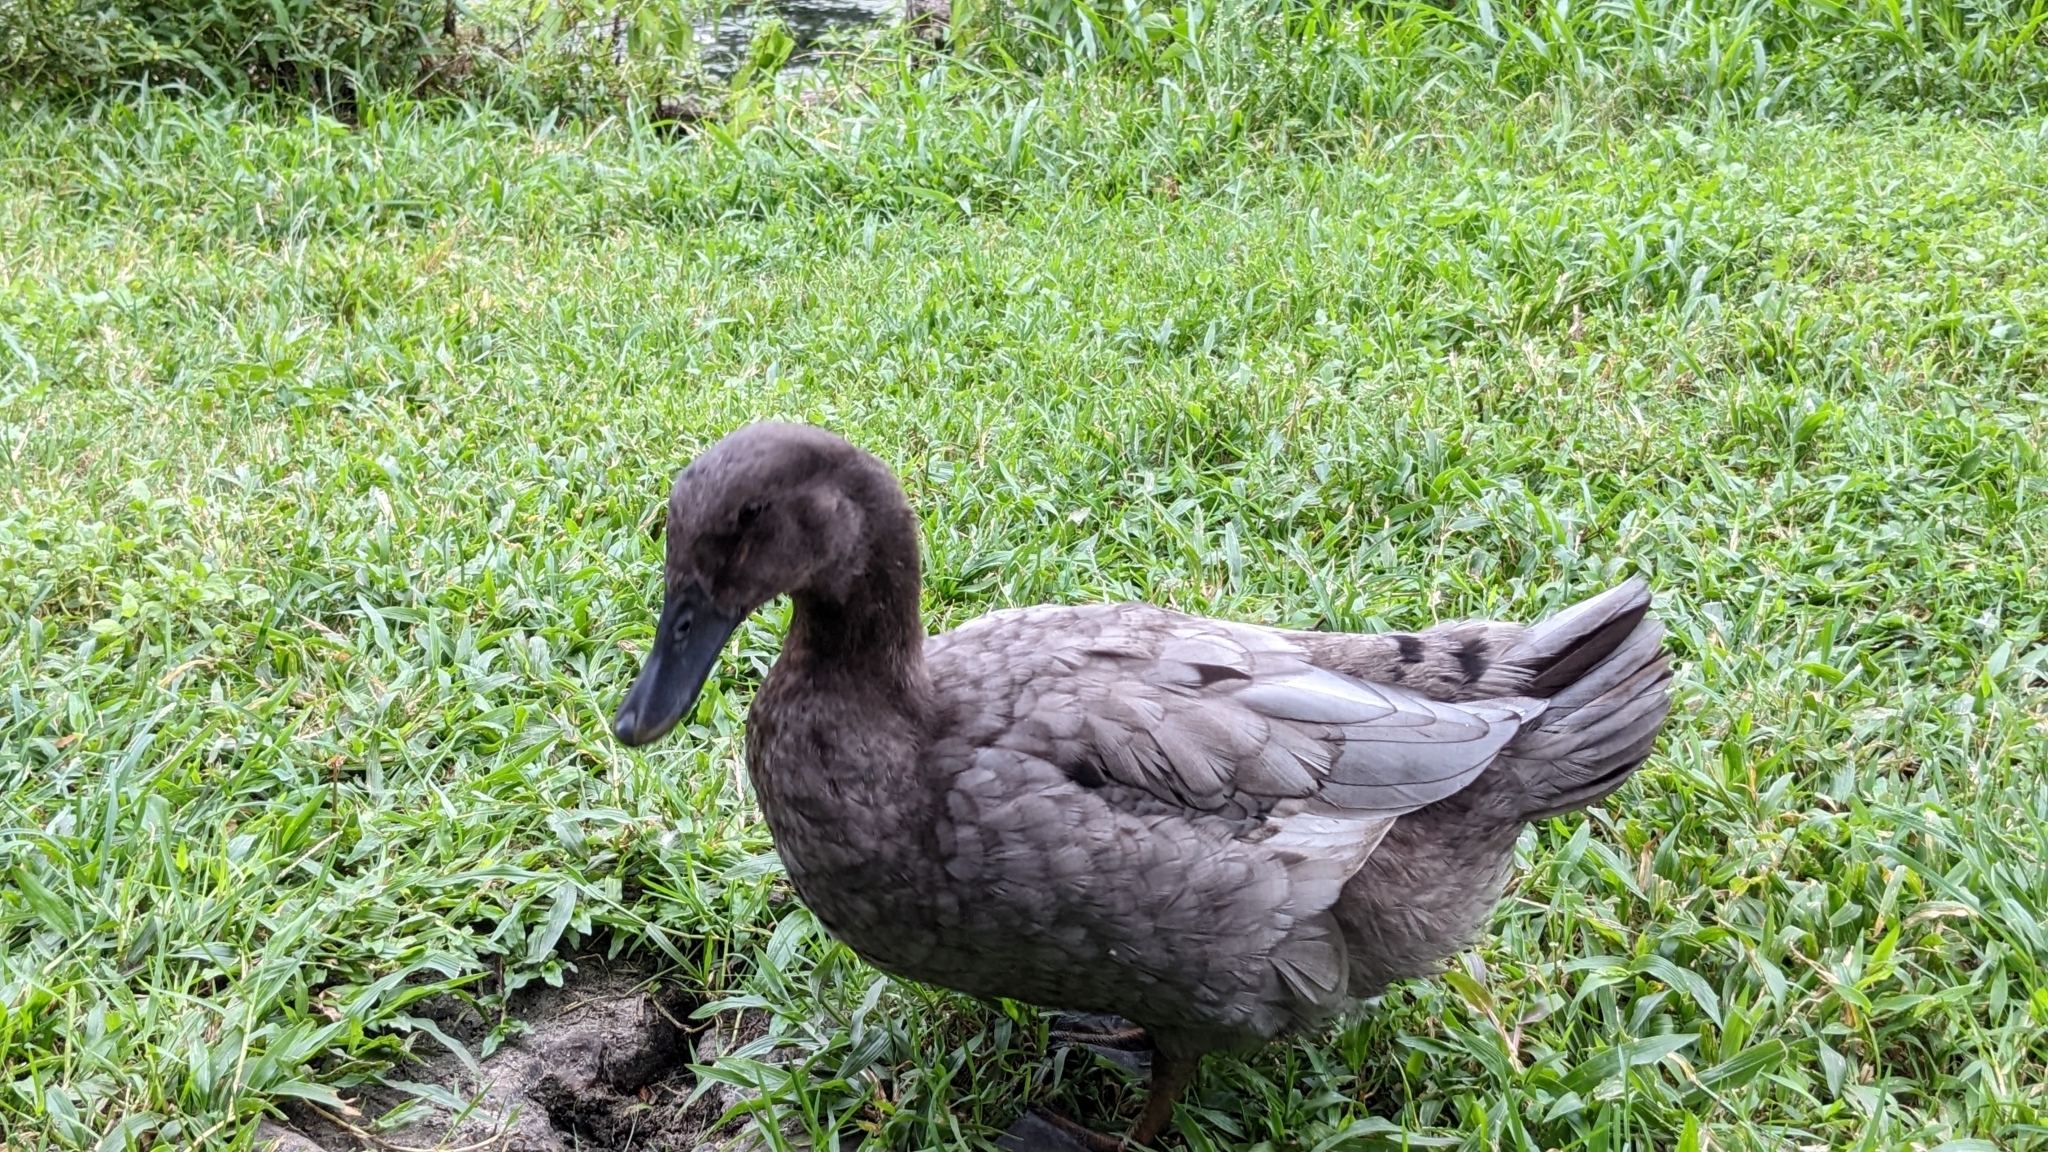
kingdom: Animalia
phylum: Chordata
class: Aves
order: Anseriformes
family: Anatidae
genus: Anas
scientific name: Anas platyrhynchos
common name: Mallard
